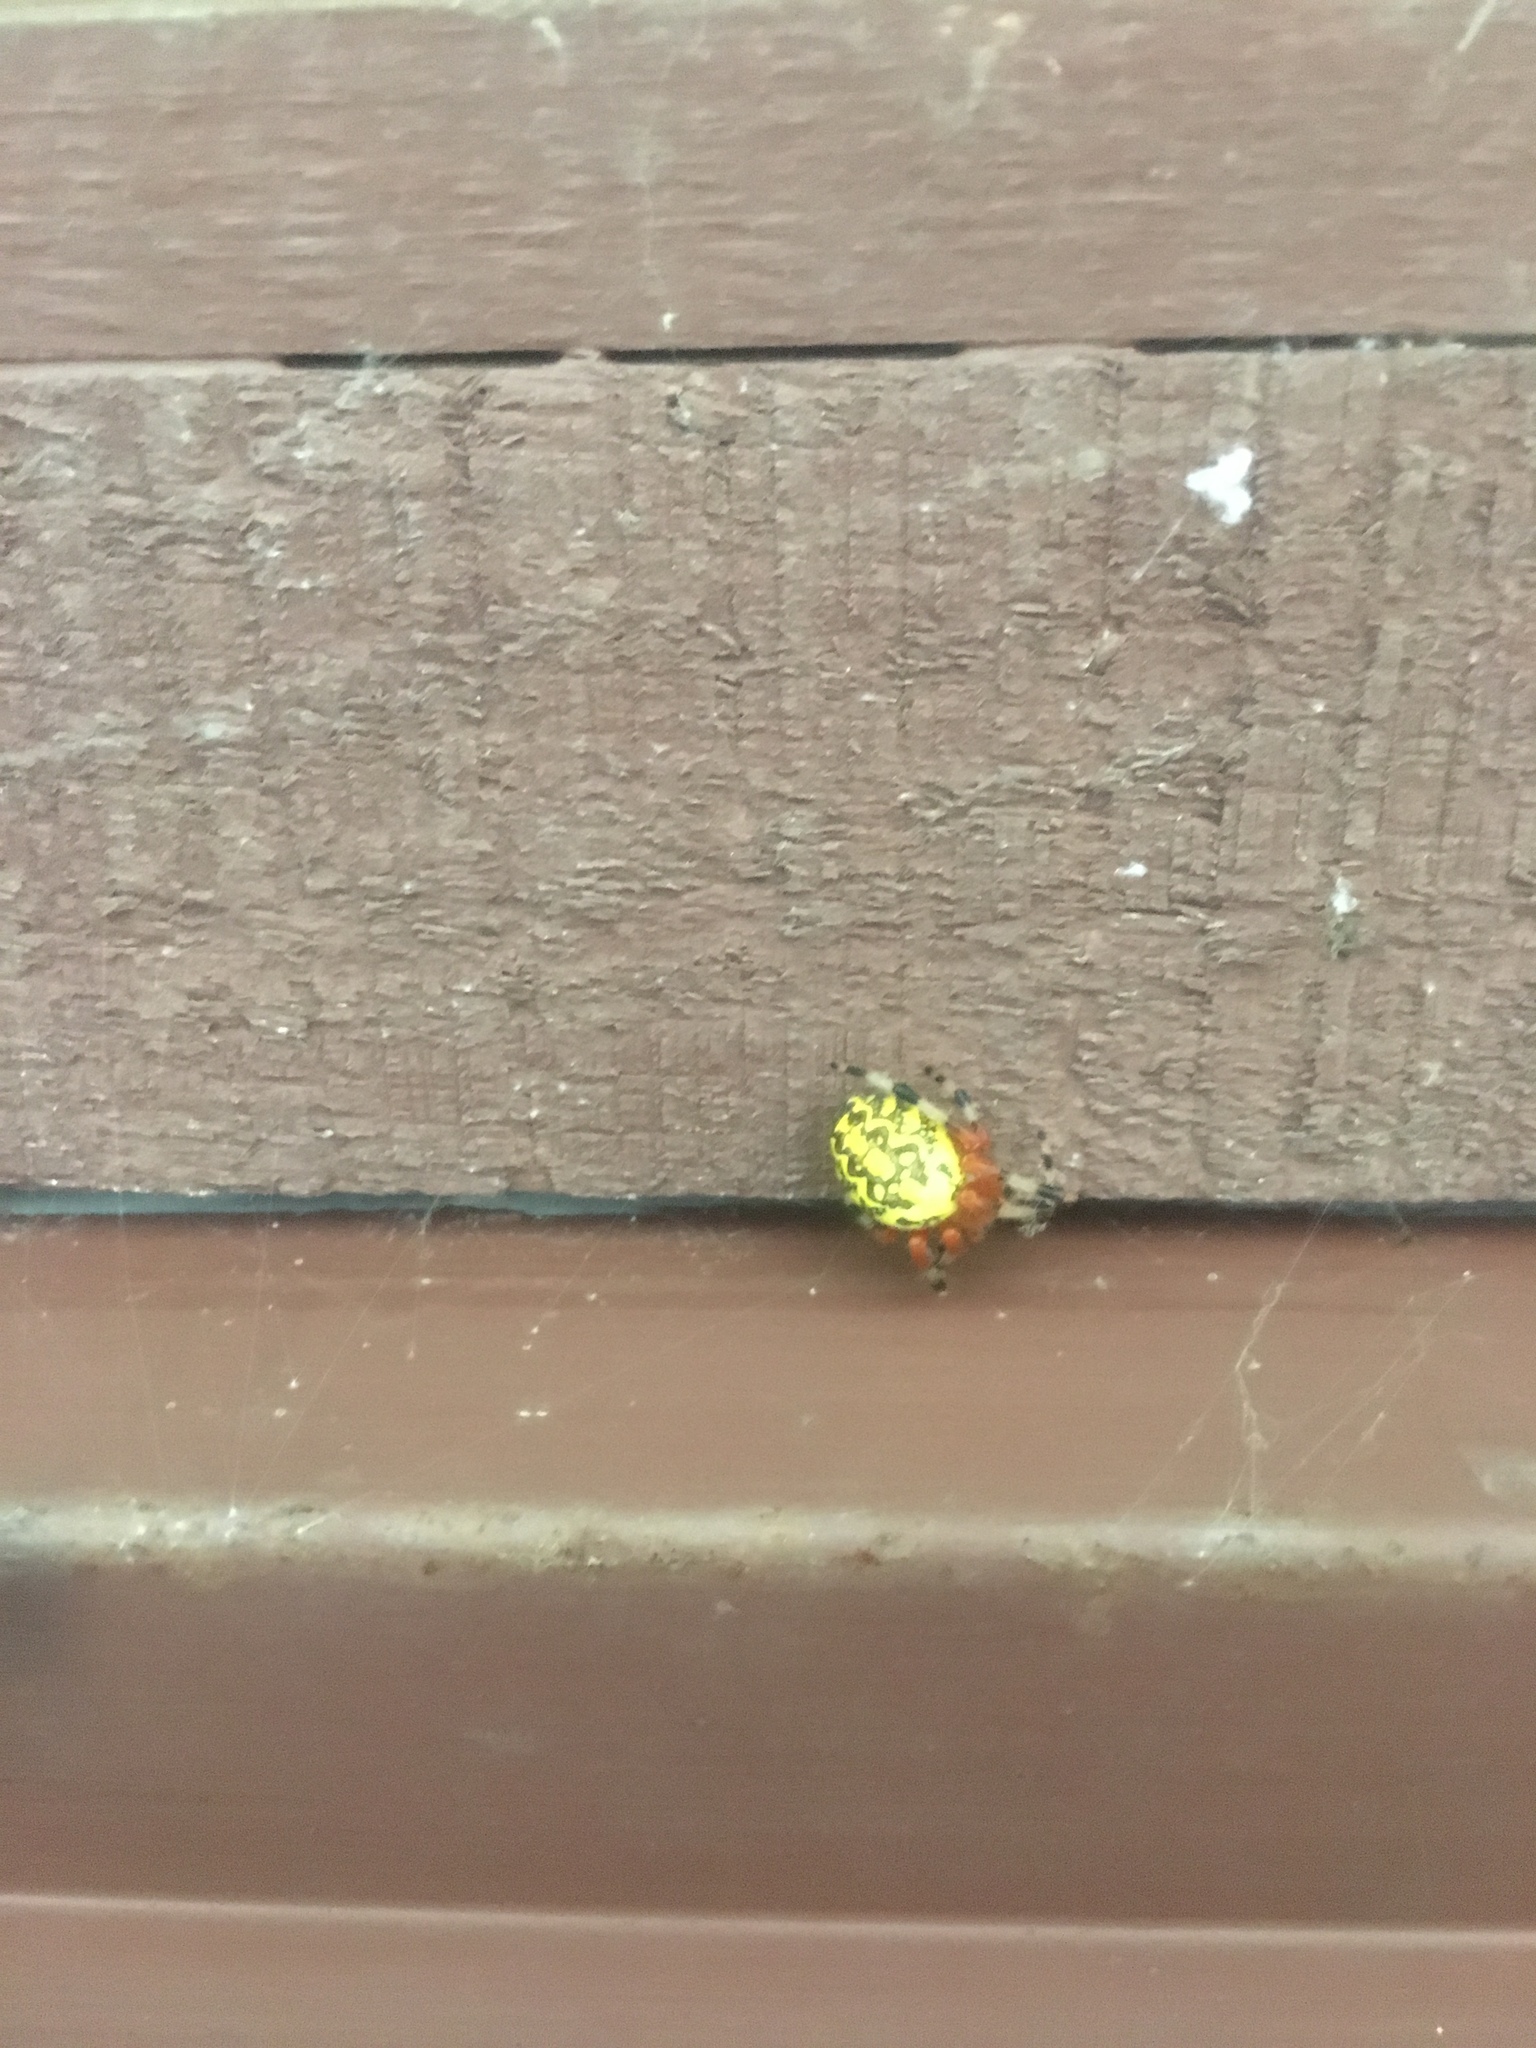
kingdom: Animalia
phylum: Arthropoda
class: Arachnida
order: Araneae
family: Araneidae
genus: Araneus
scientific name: Araneus marmoreus
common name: Marbled orbweaver
